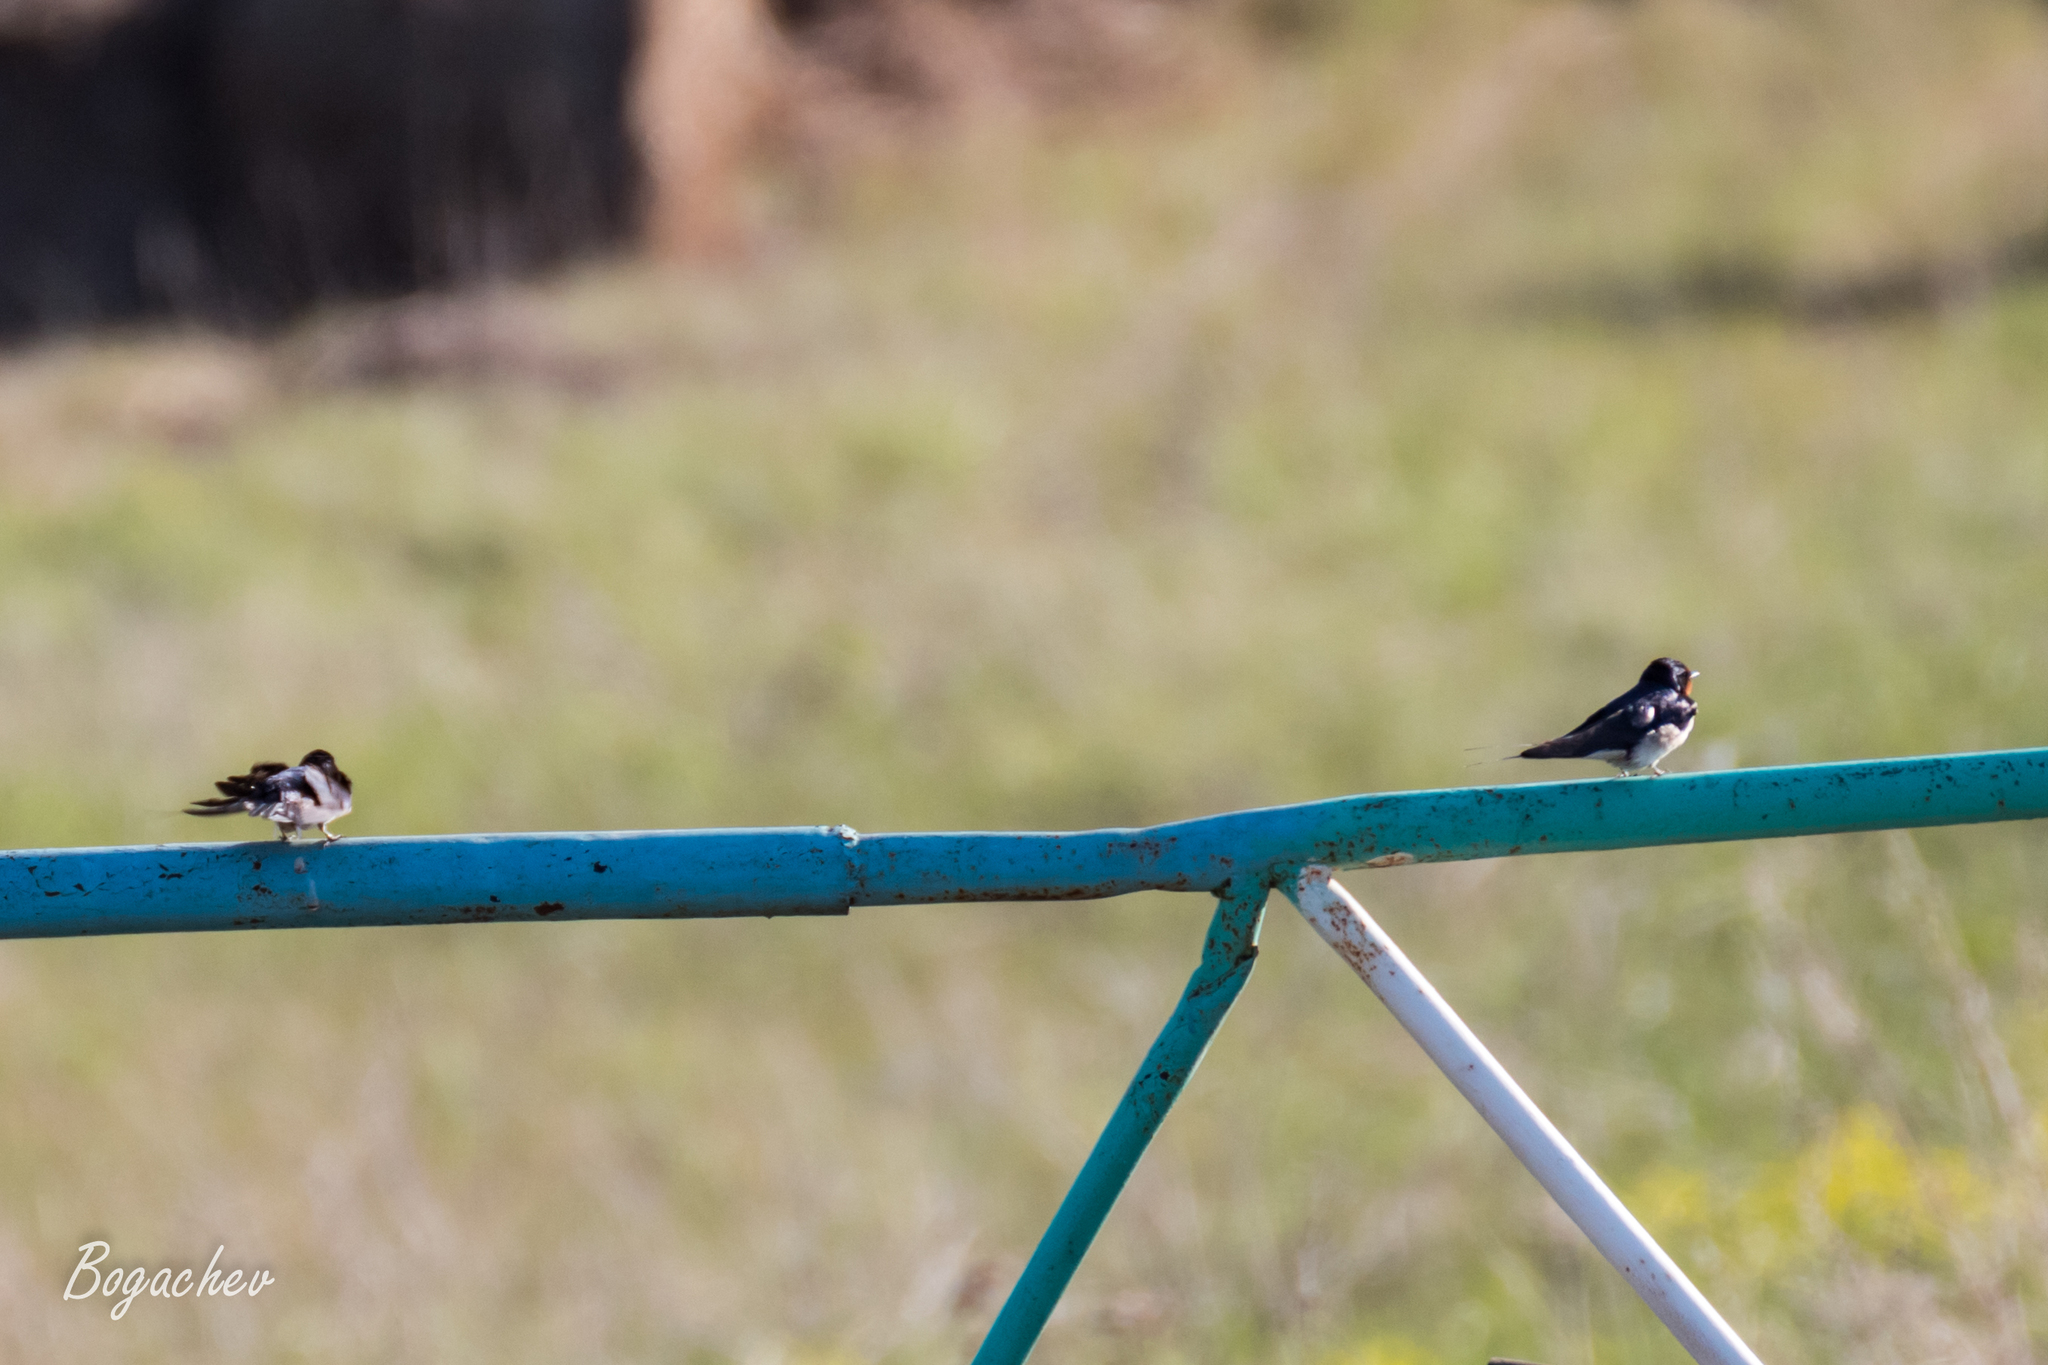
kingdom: Animalia
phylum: Chordata
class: Aves
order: Passeriformes
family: Hirundinidae
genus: Hirundo
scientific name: Hirundo rustica
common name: Barn swallow
